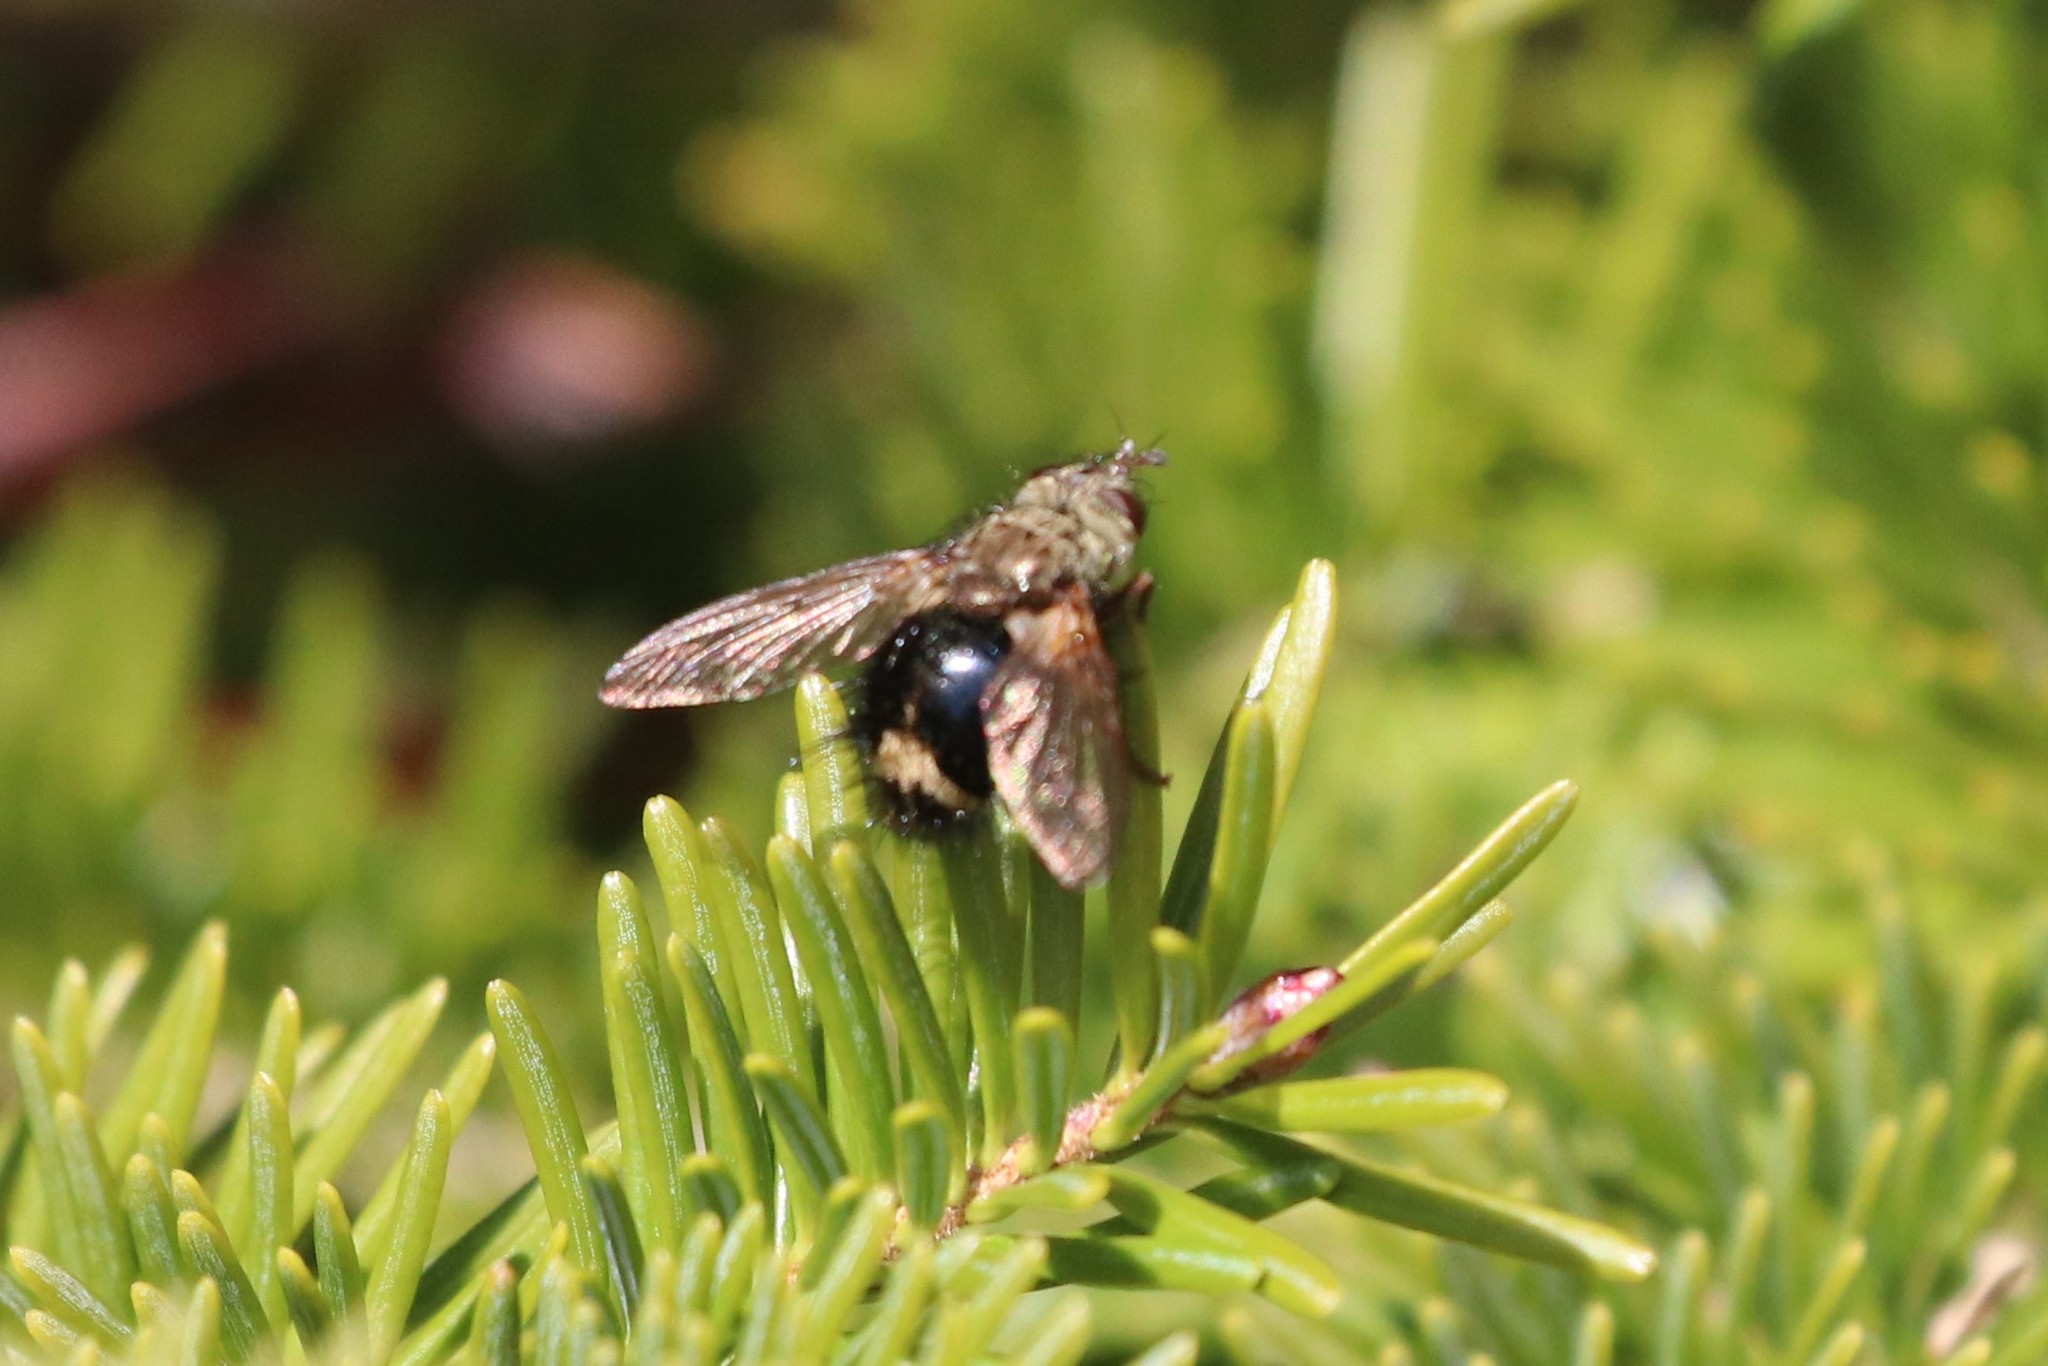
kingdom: Animalia
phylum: Arthropoda
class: Insecta
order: Diptera
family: Tachinidae
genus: Epalpus
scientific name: Epalpus signifer
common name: Early tachinid fly
